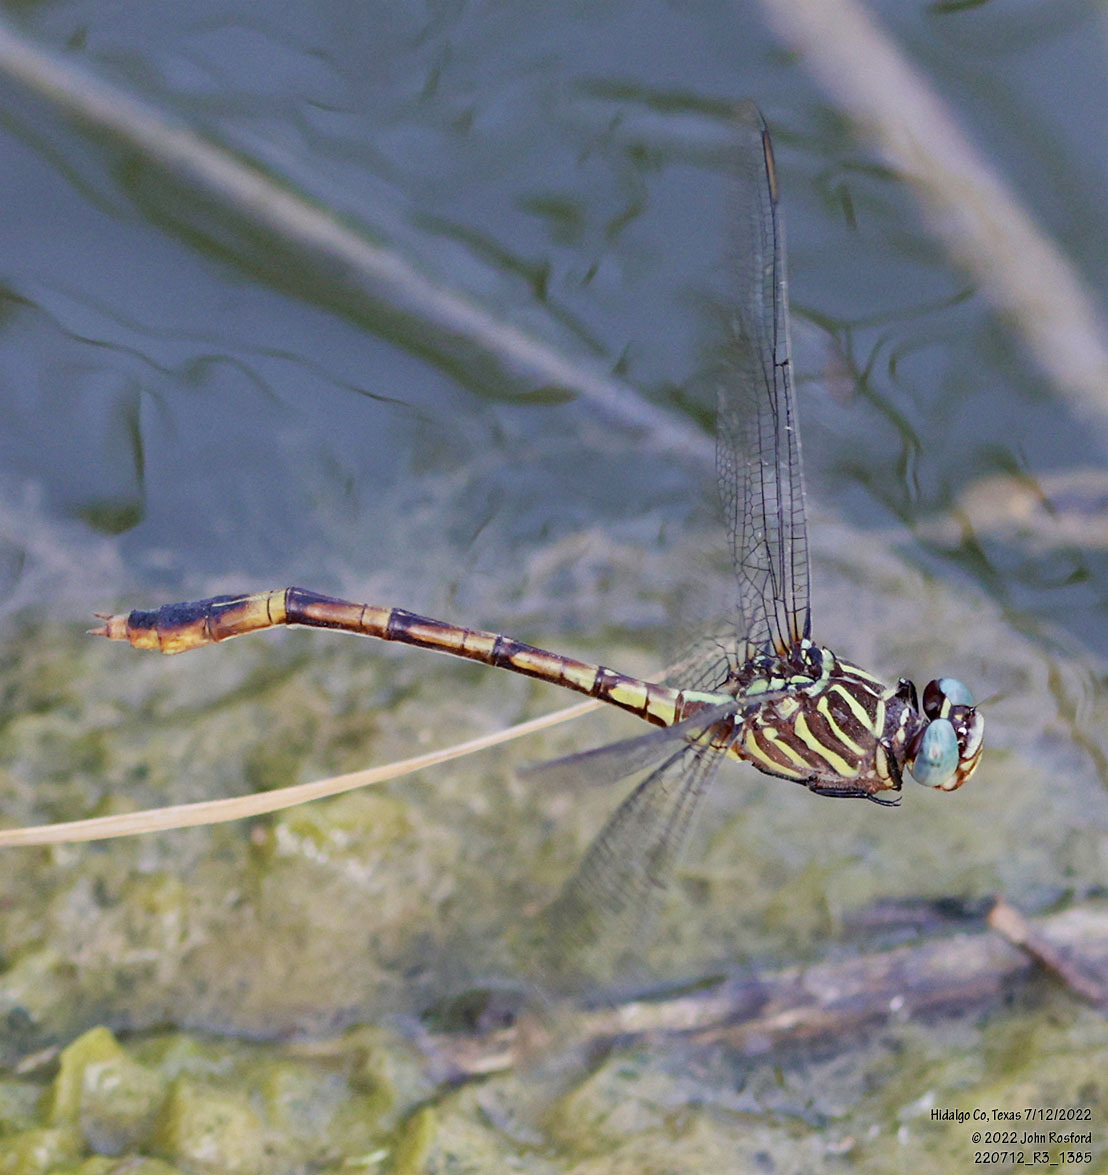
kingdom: Animalia
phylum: Arthropoda
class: Insecta
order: Odonata
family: Gomphidae
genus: Aphylla
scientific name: Aphylla protracta
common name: Narrow-striped forceptail
